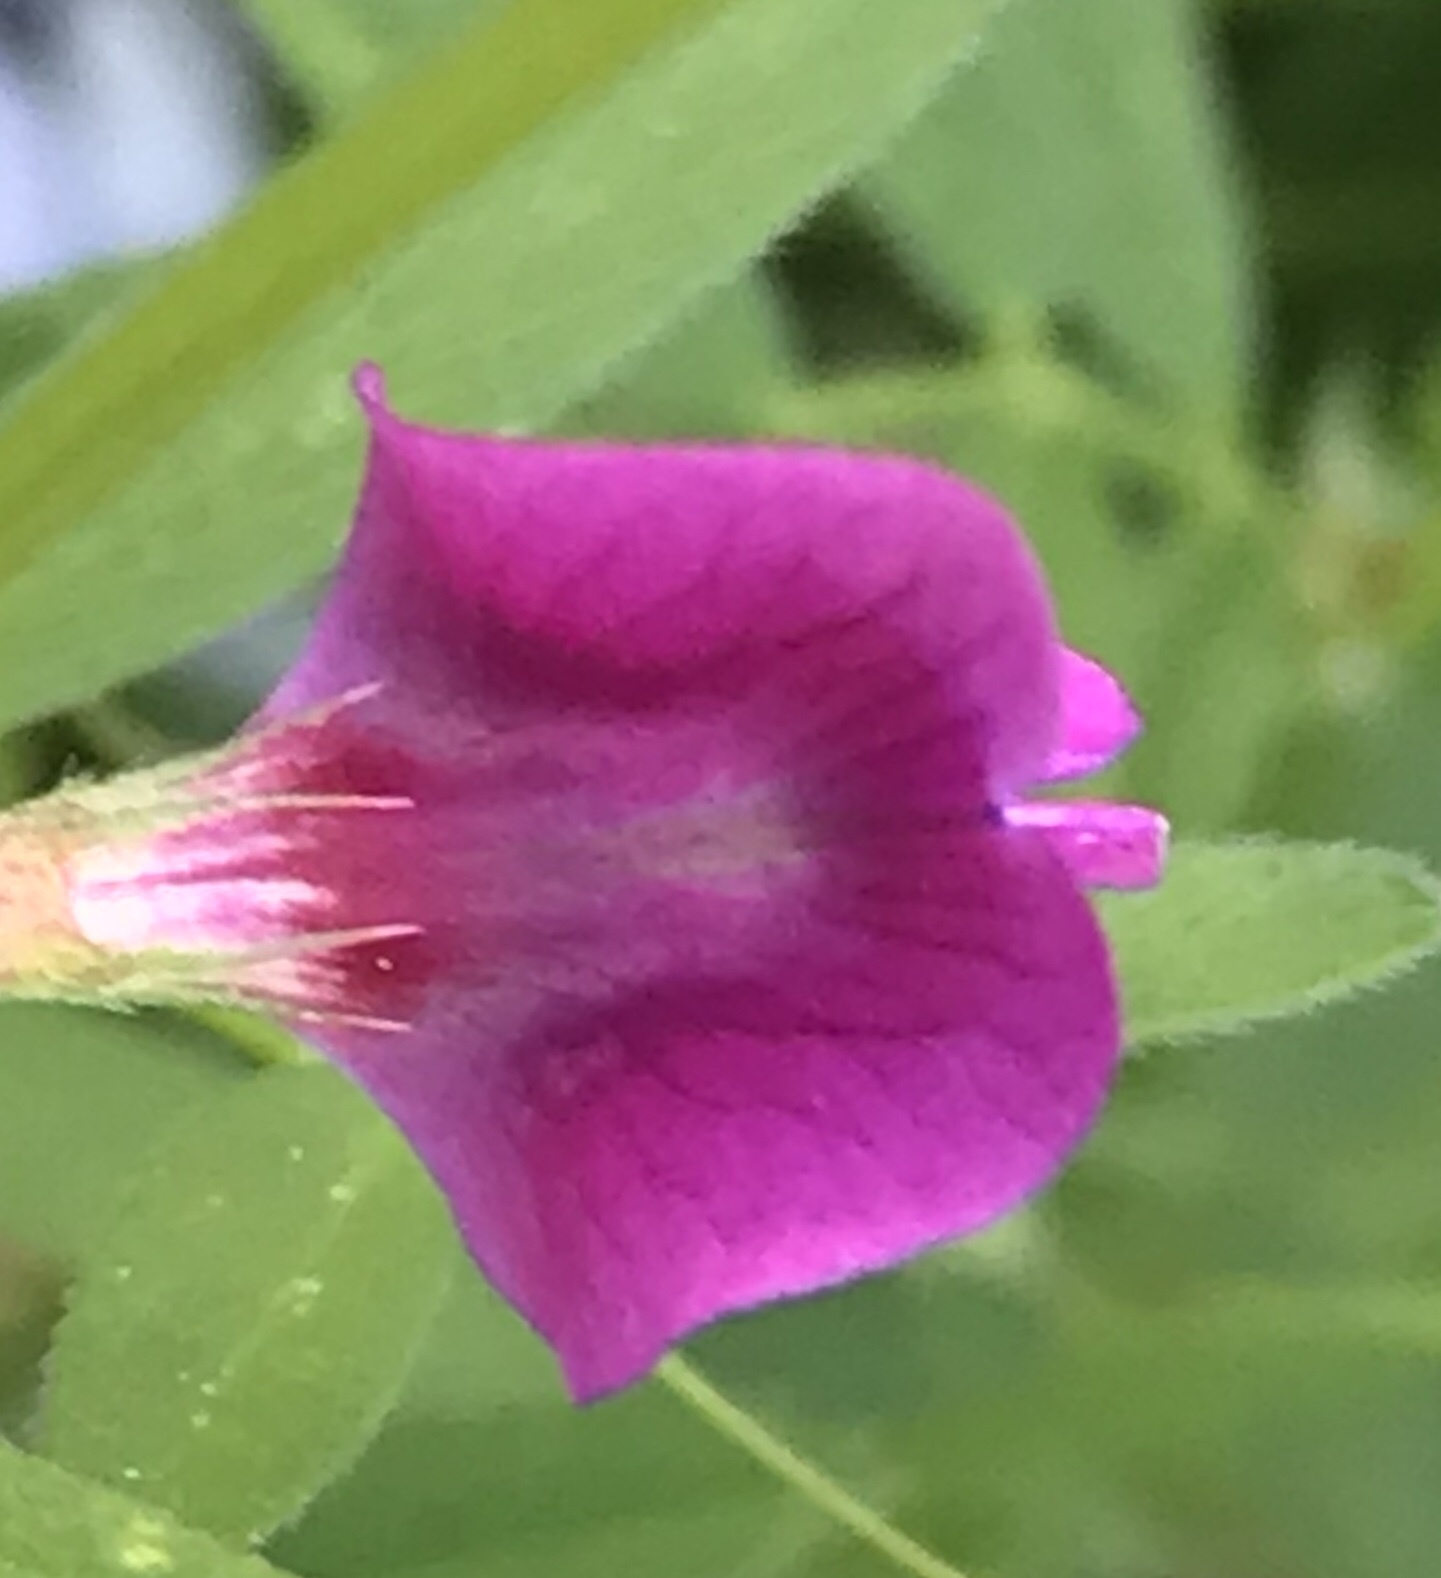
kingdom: Plantae
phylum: Tracheophyta
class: Magnoliopsida
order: Fabales
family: Fabaceae
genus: Vicia
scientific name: Vicia sativa
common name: Garden vetch
